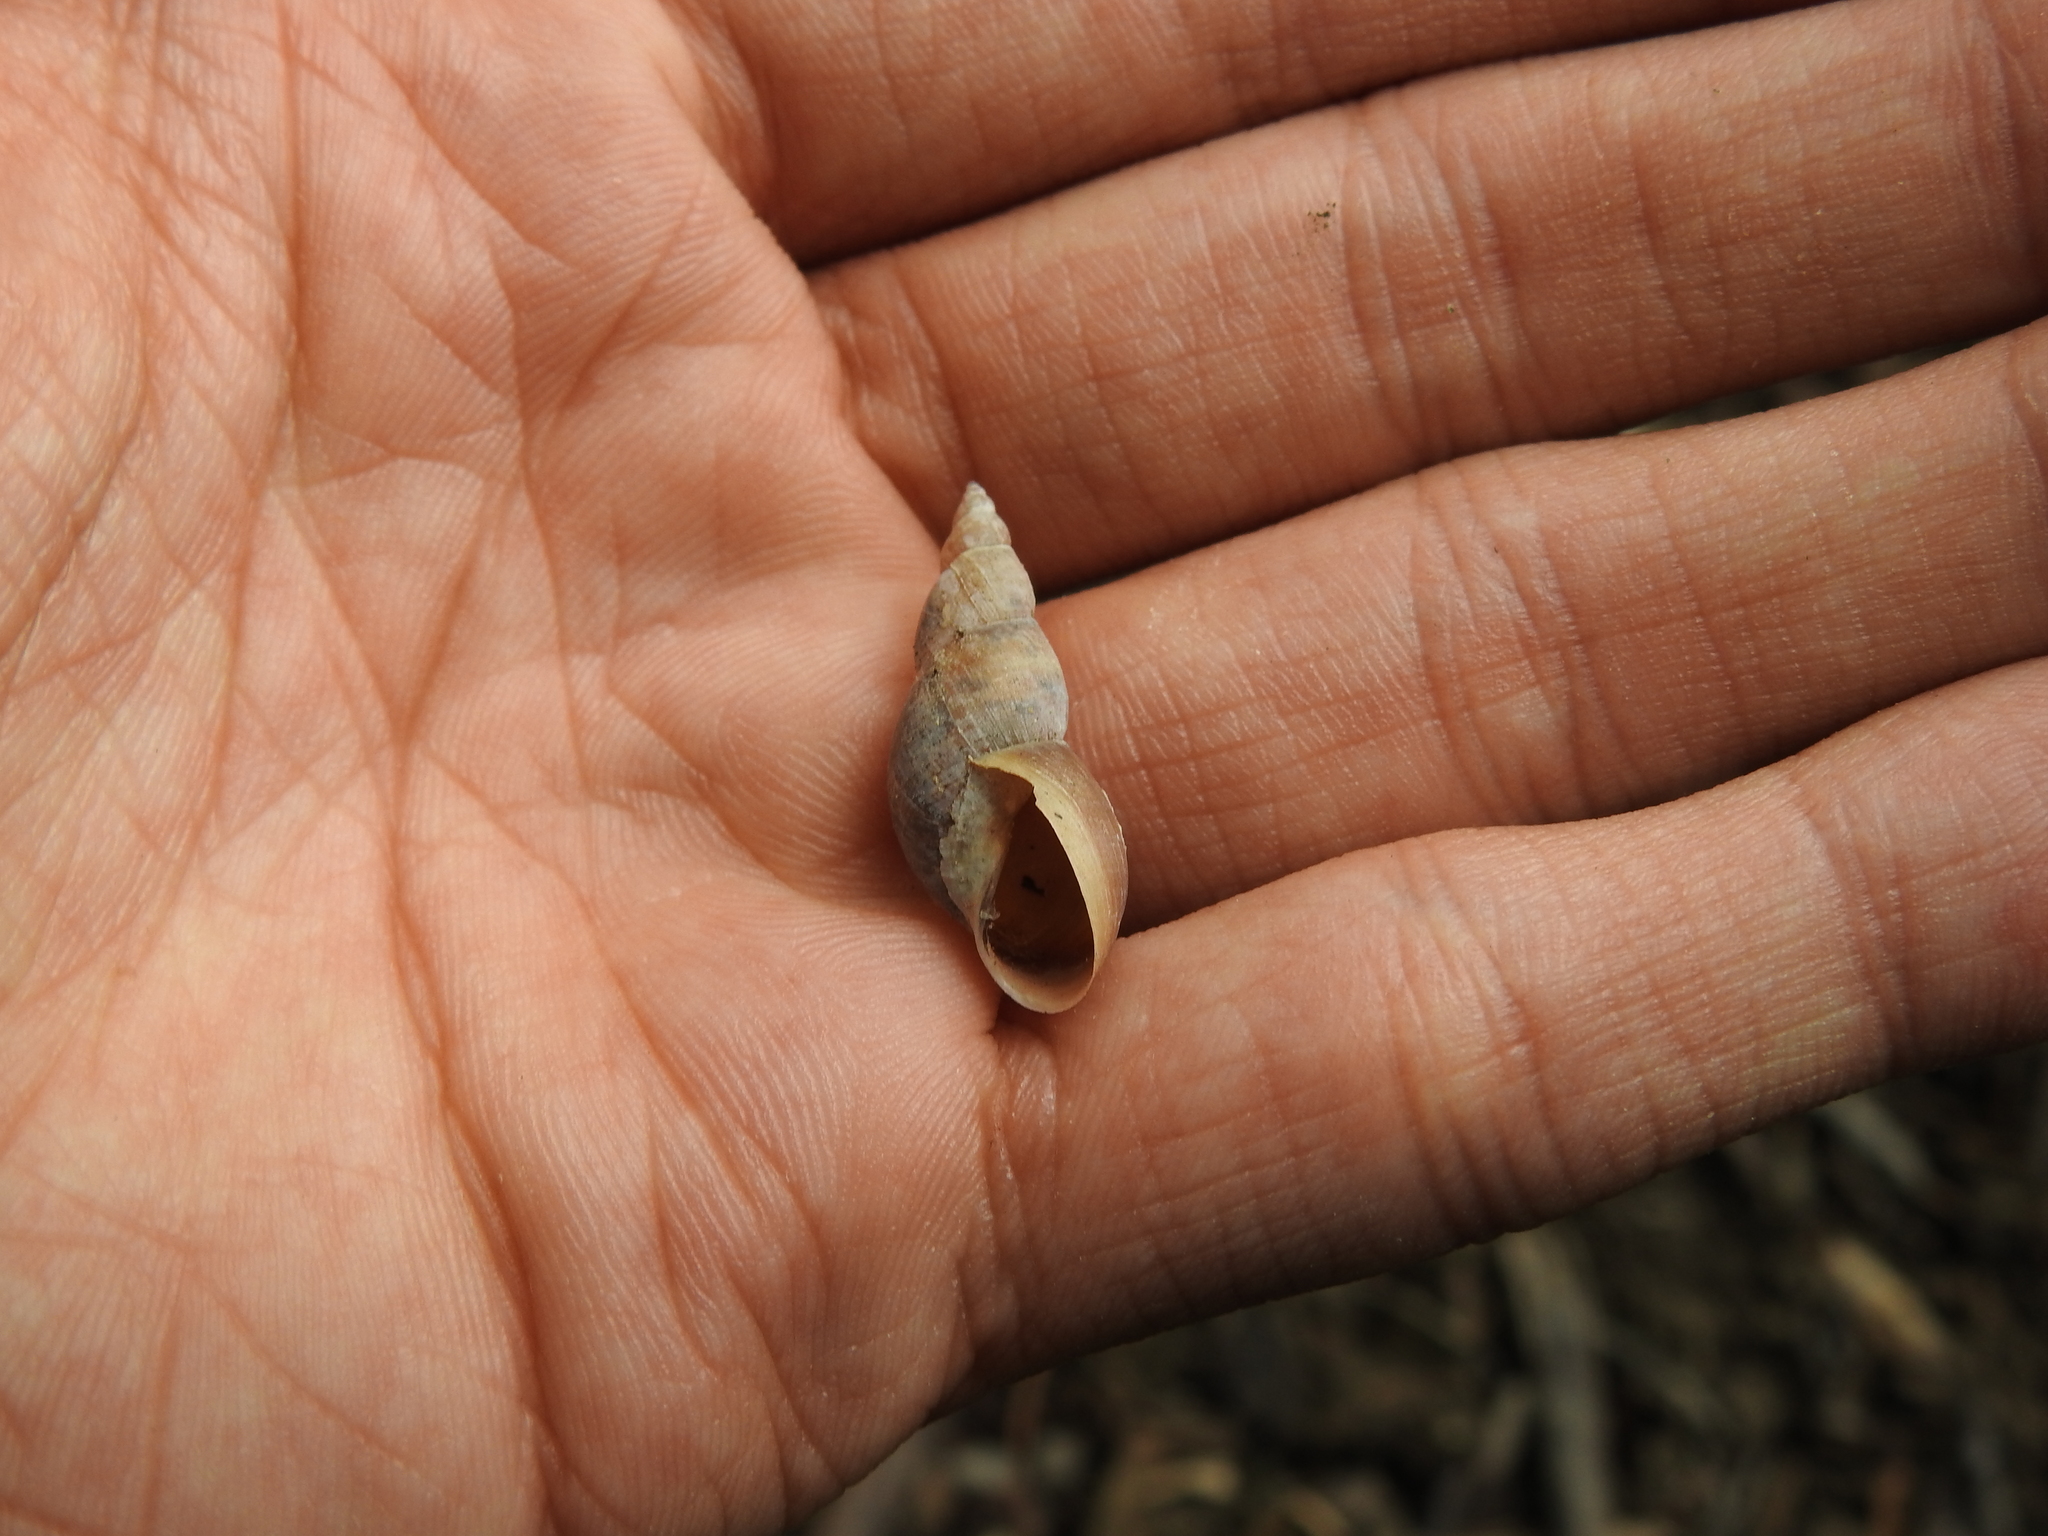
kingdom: Animalia
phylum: Mollusca
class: Gastropoda
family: Lymnaeidae
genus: Stagnicola
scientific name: Stagnicola corvus
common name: Giant pondsnail
